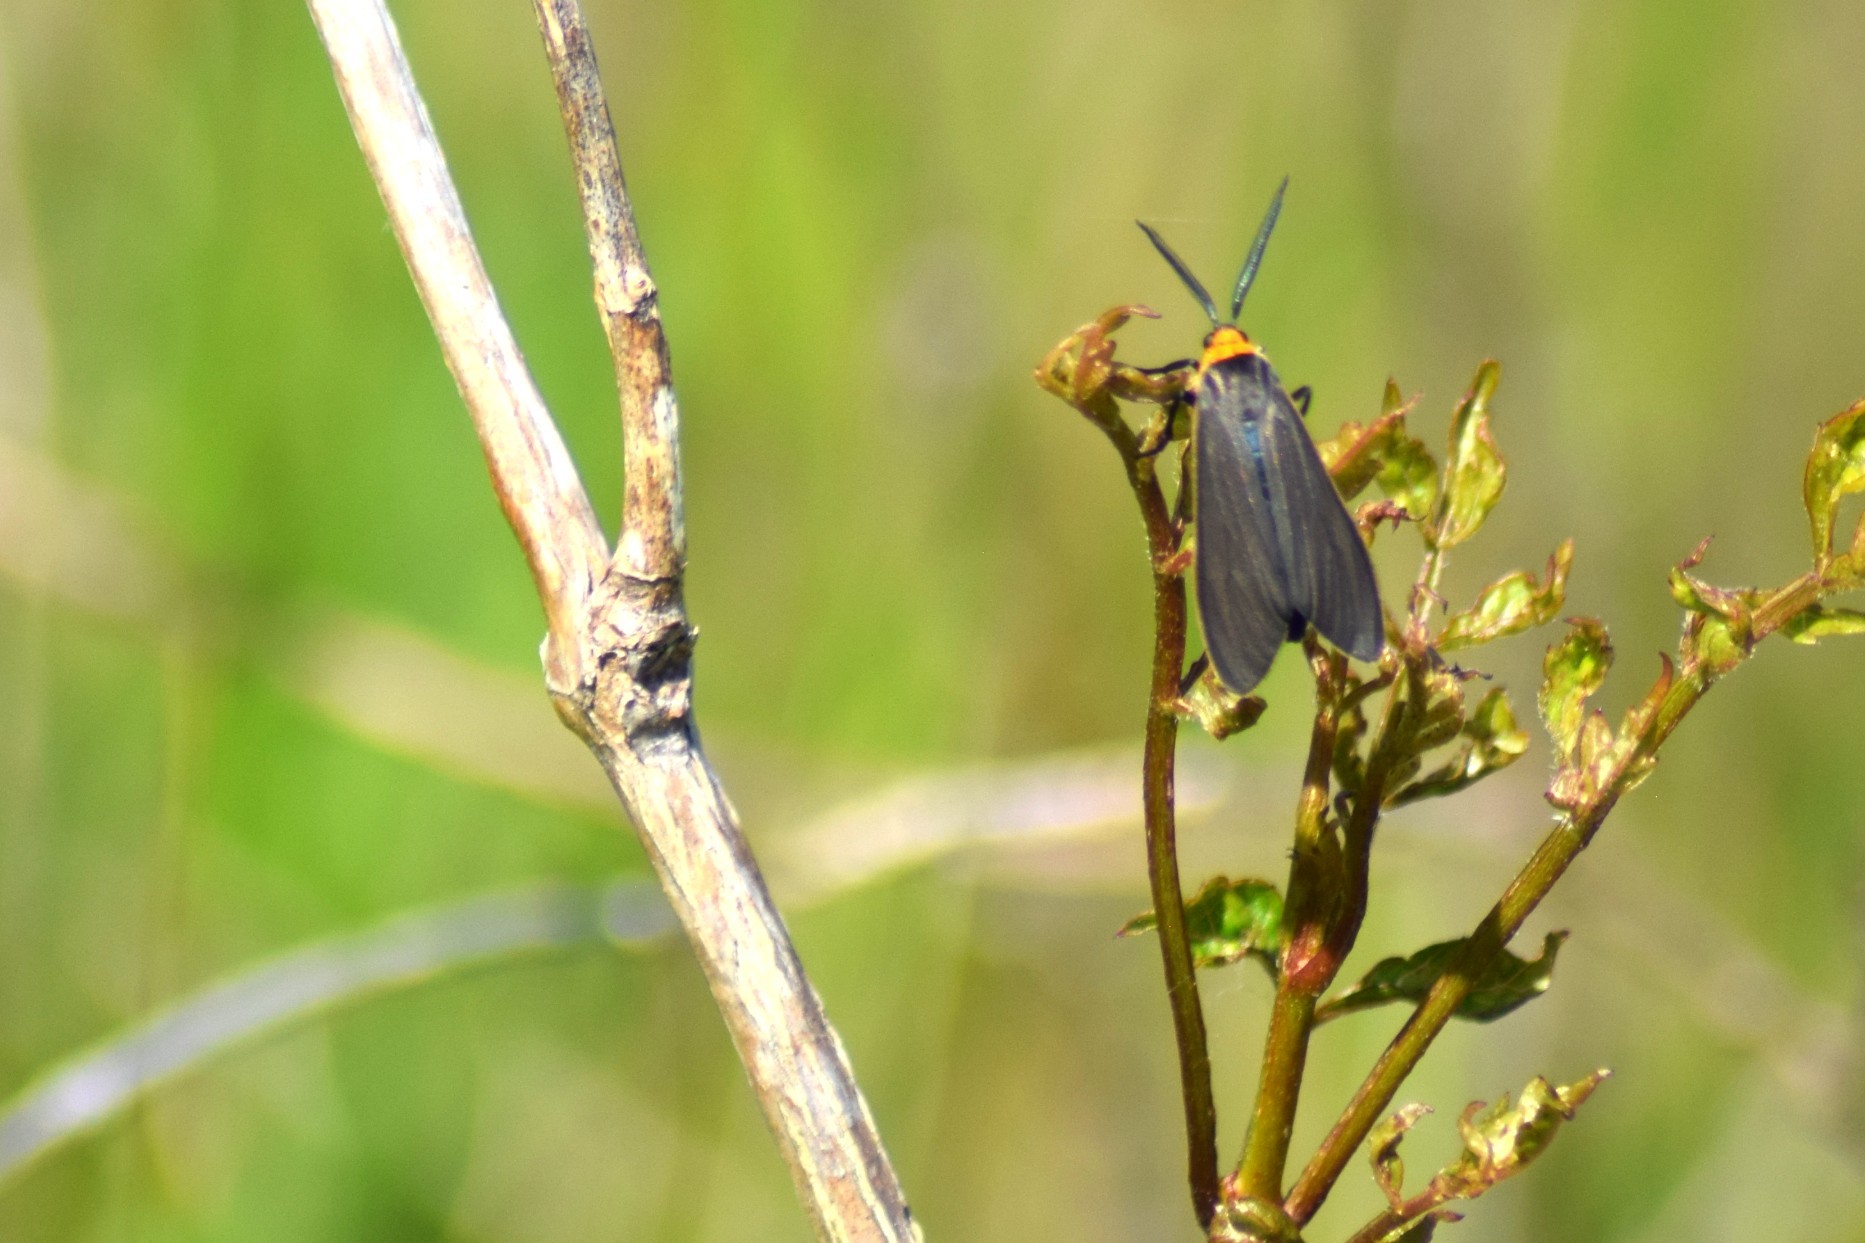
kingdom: Animalia
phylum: Arthropoda
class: Insecta
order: Lepidoptera
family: Erebidae
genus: Cisseps
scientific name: Cisseps fulvicollis
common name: Yellow-collared scape moth
